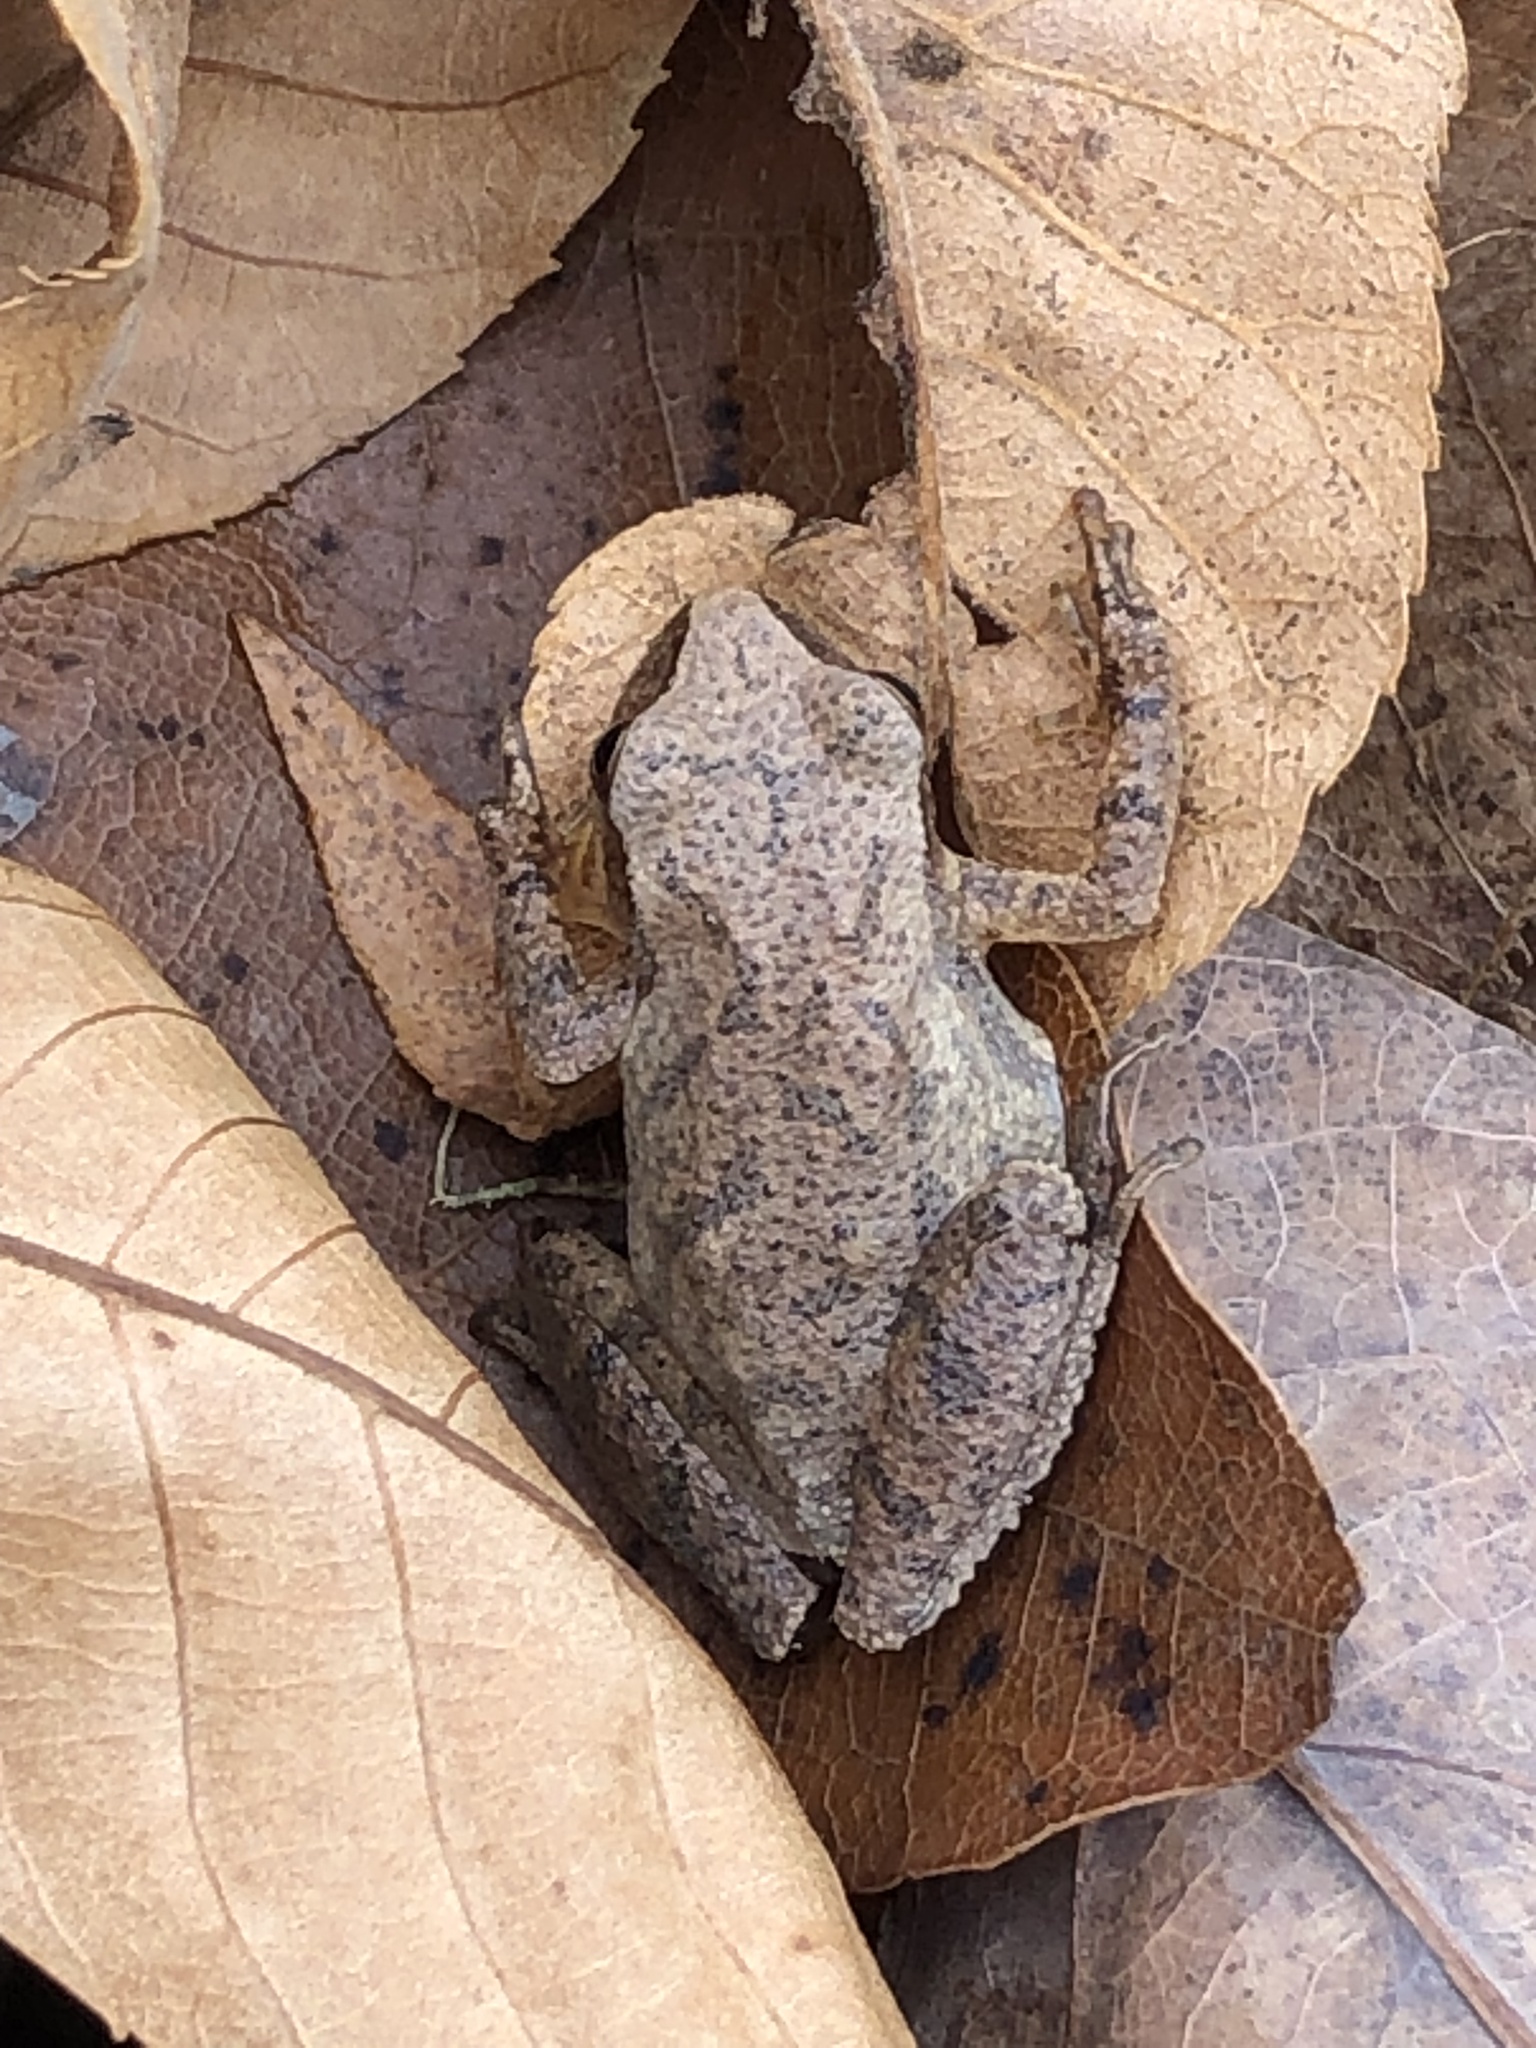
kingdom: Animalia
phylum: Chordata
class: Amphibia
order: Anura
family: Hylidae
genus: Pseudacris
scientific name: Pseudacris crucifer
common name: Spring peeper
